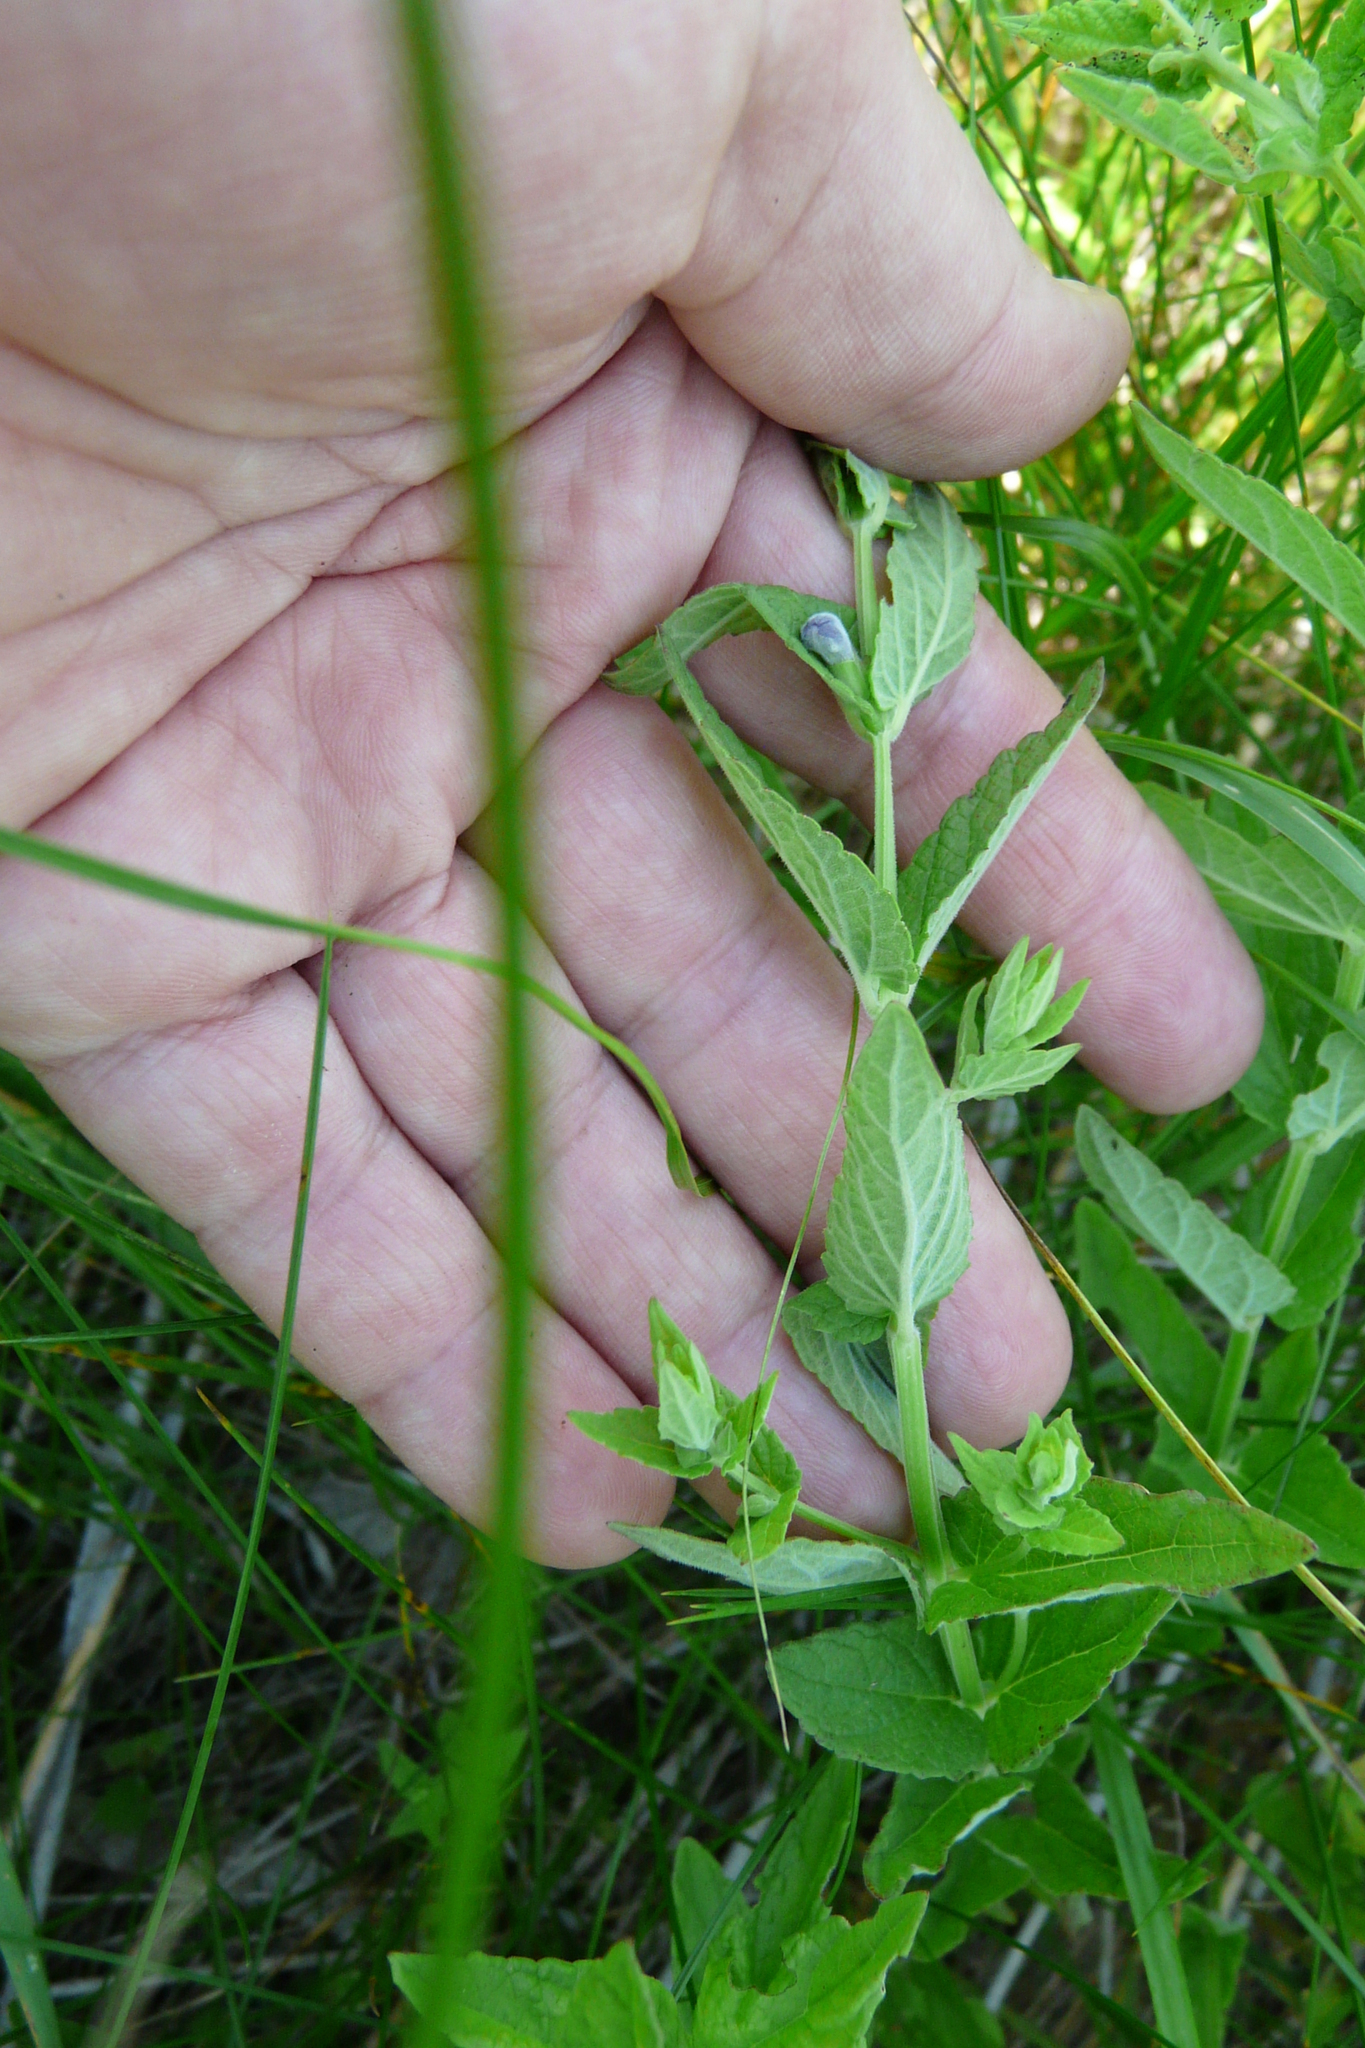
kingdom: Plantae
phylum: Tracheophyta
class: Magnoliopsida
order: Lamiales
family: Lamiaceae
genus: Scutellaria
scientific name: Scutellaria galericulata
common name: Skullcap
